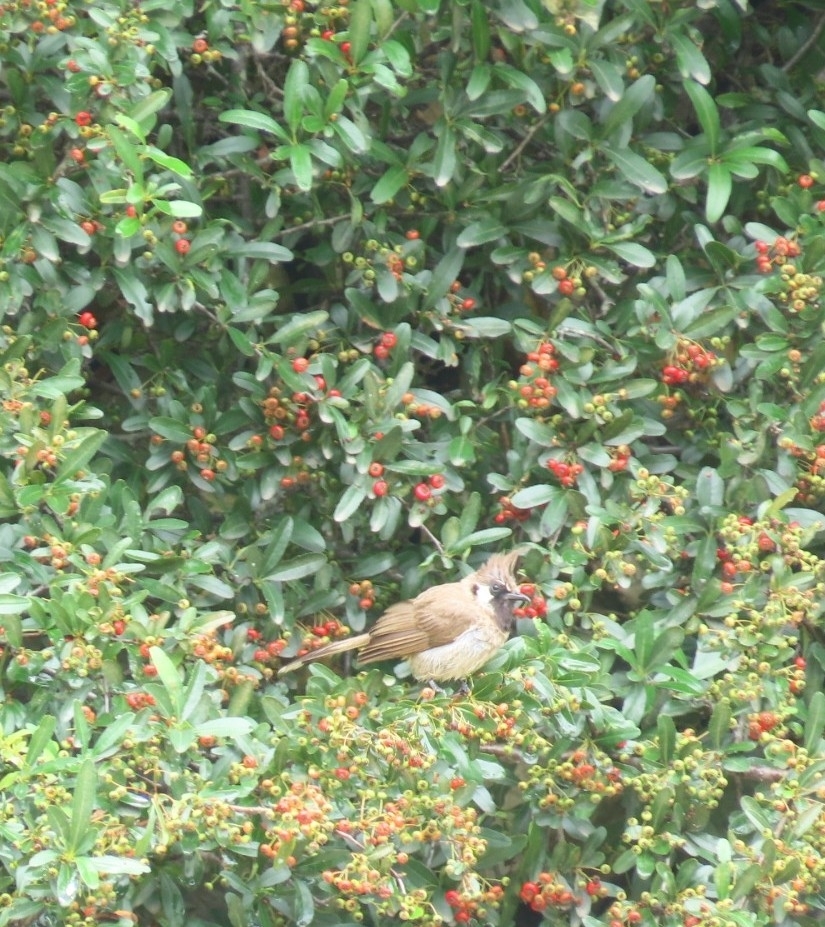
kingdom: Animalia
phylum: Chordata
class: Aves
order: Passeriformes
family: Pycnonotidae
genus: Pycnonotus
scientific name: Pycnonotus leucogenys
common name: Himalayan bulbul
